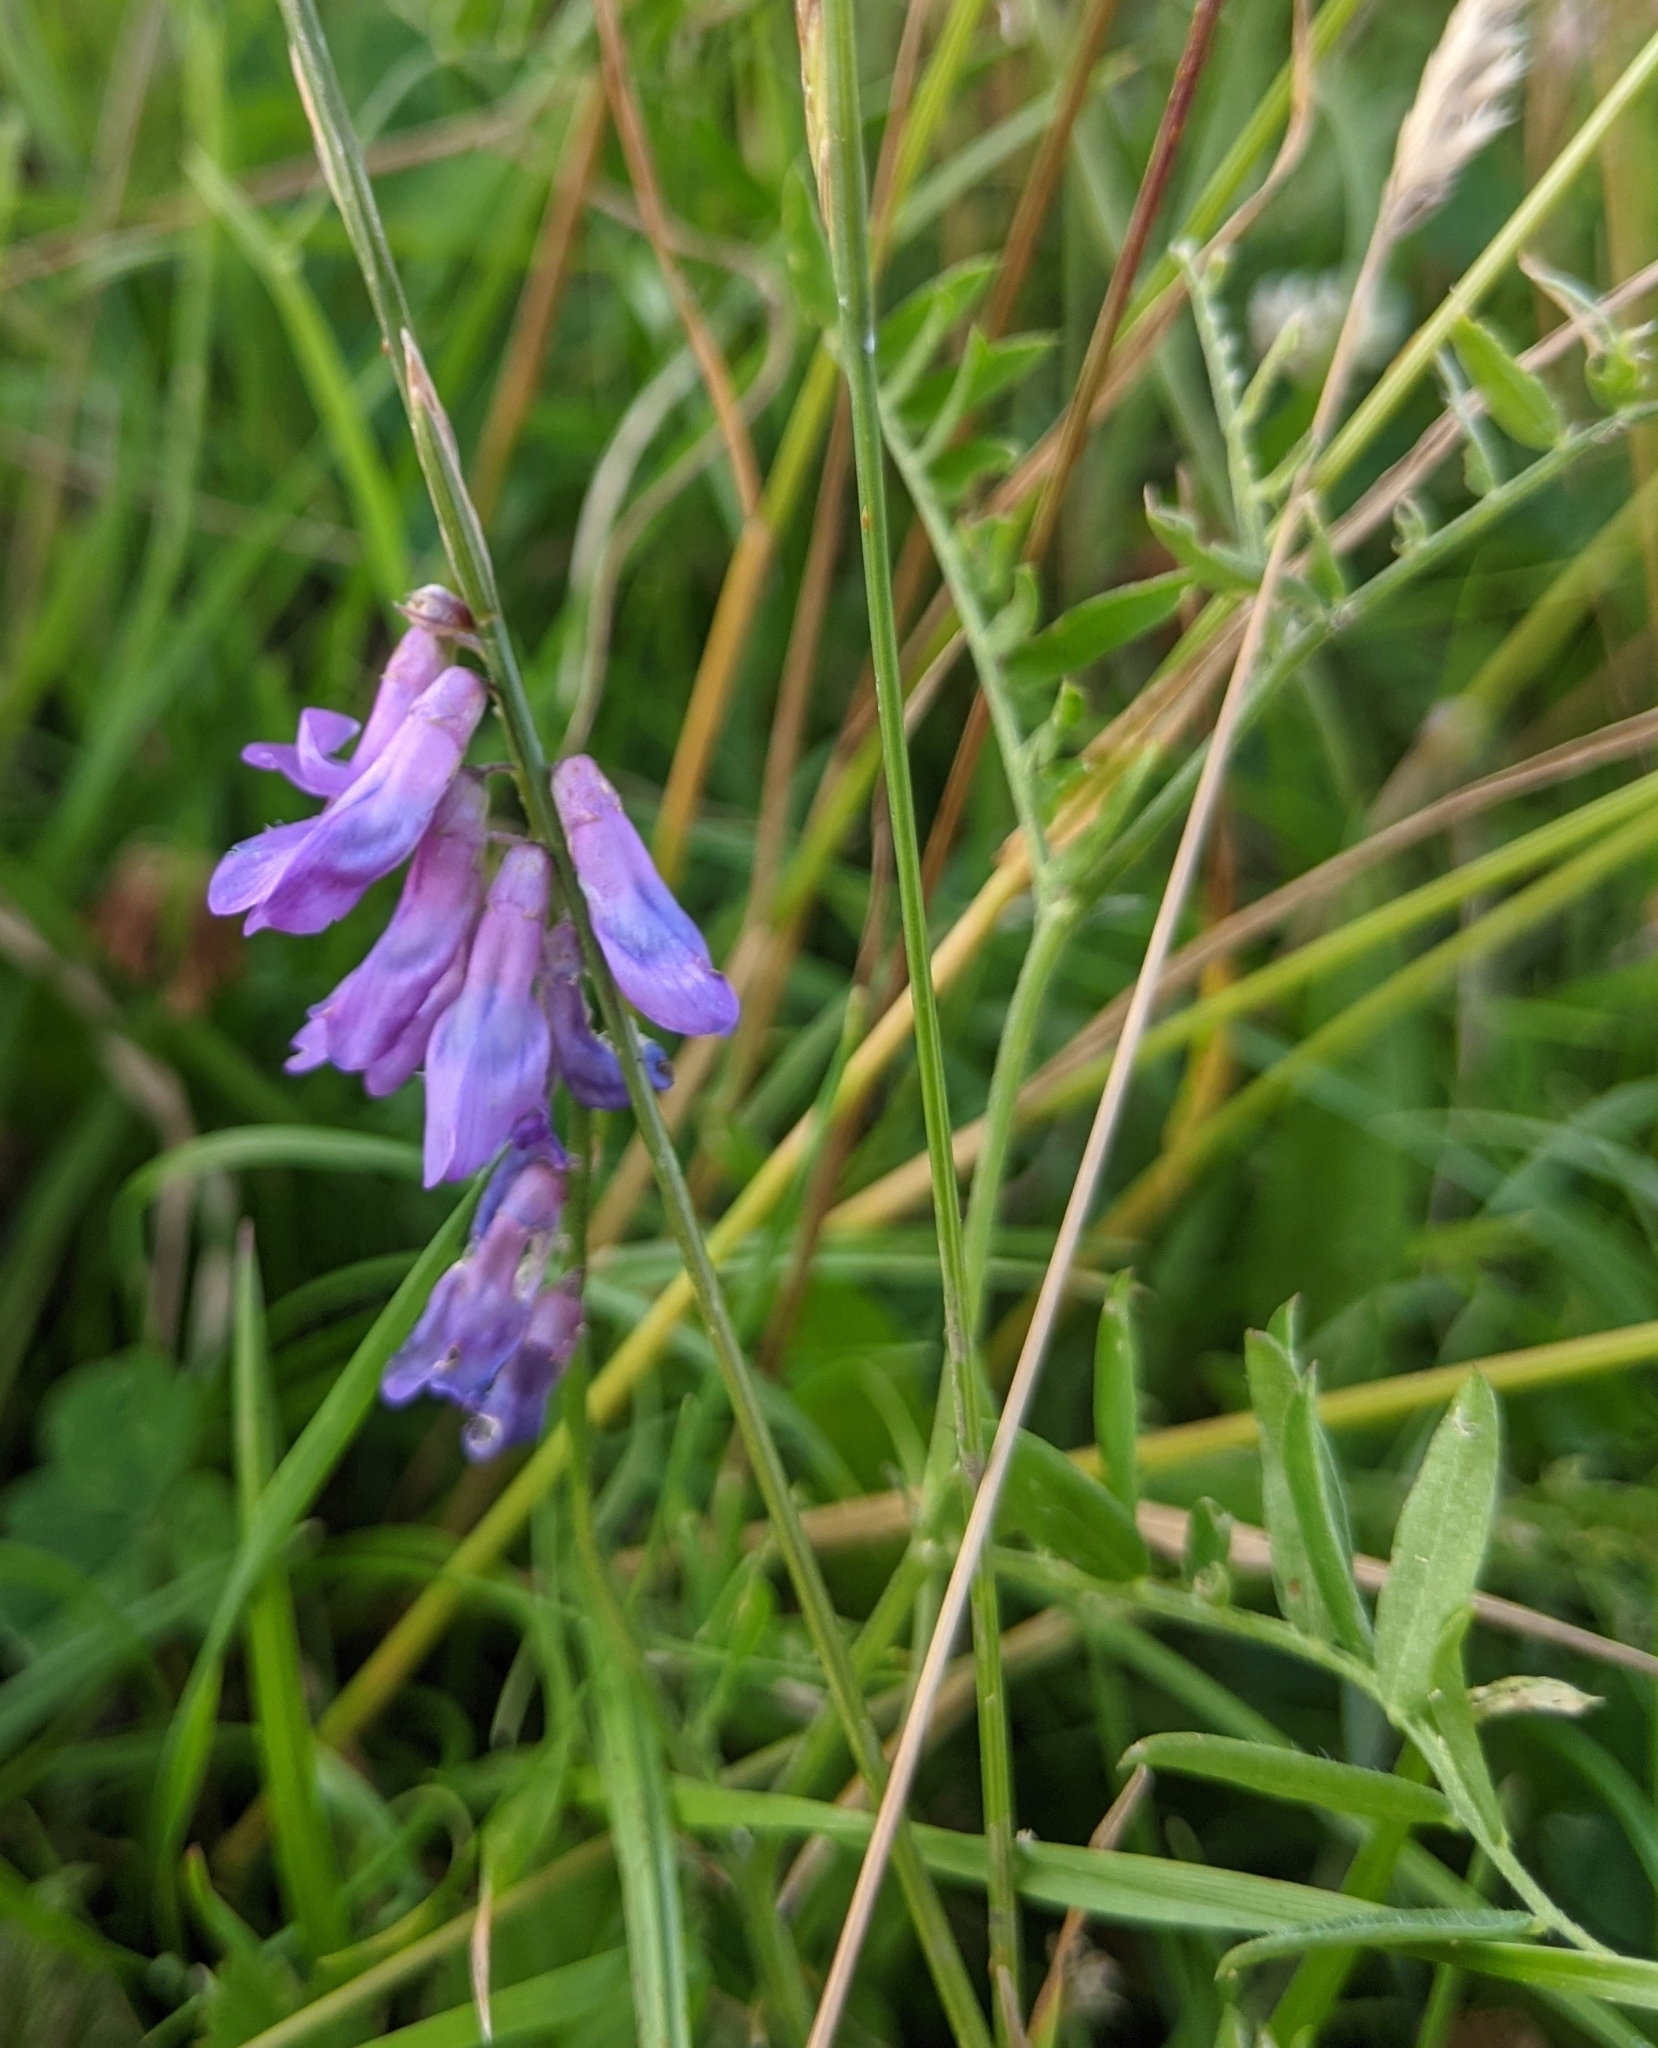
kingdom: Plantae
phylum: Tracheophyta
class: Magnoliopsida
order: Fabales
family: Fabaceae
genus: Vicia
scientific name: Vicia cracca
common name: Bird vetch
